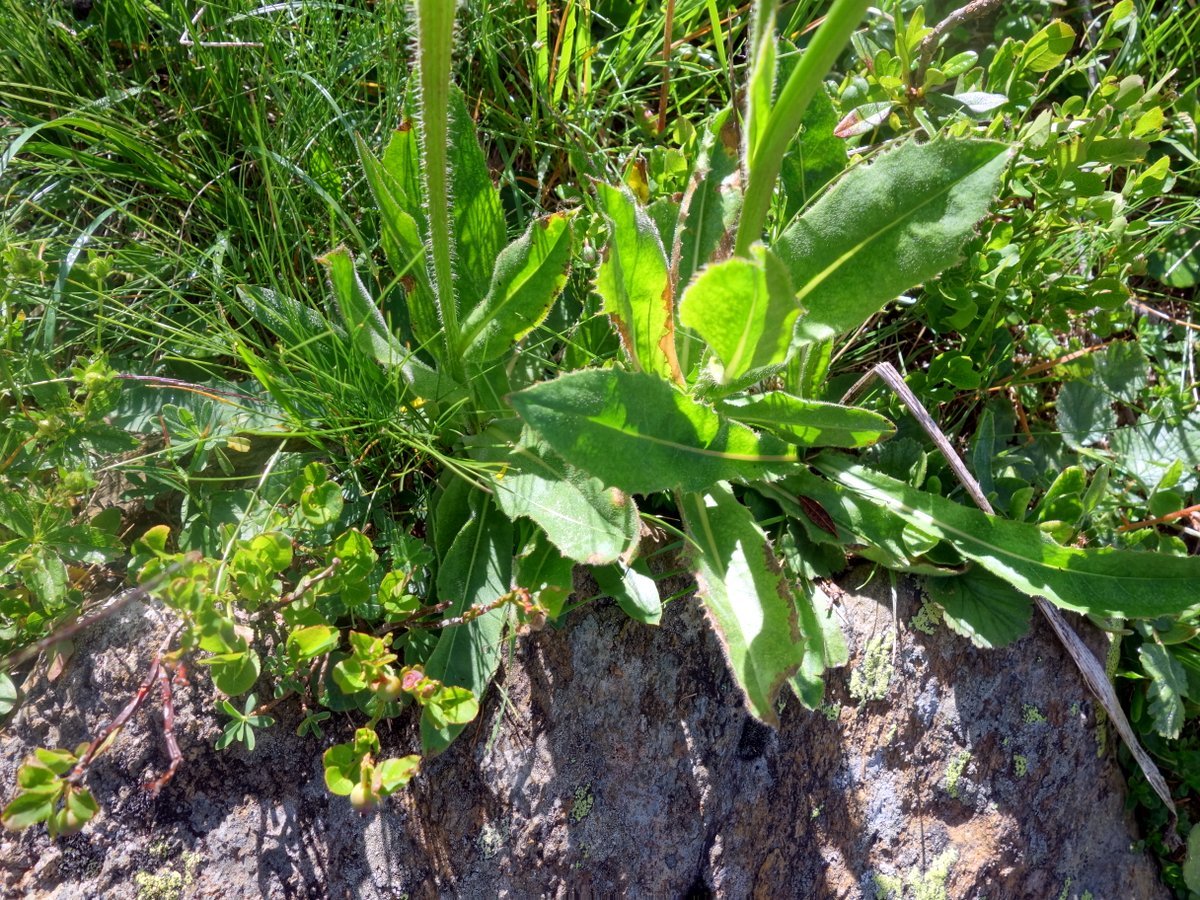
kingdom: Plantae
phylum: Tracheophyta
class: Magnoliopsida
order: Asterales
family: Asteraceae
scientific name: Asteraceae
